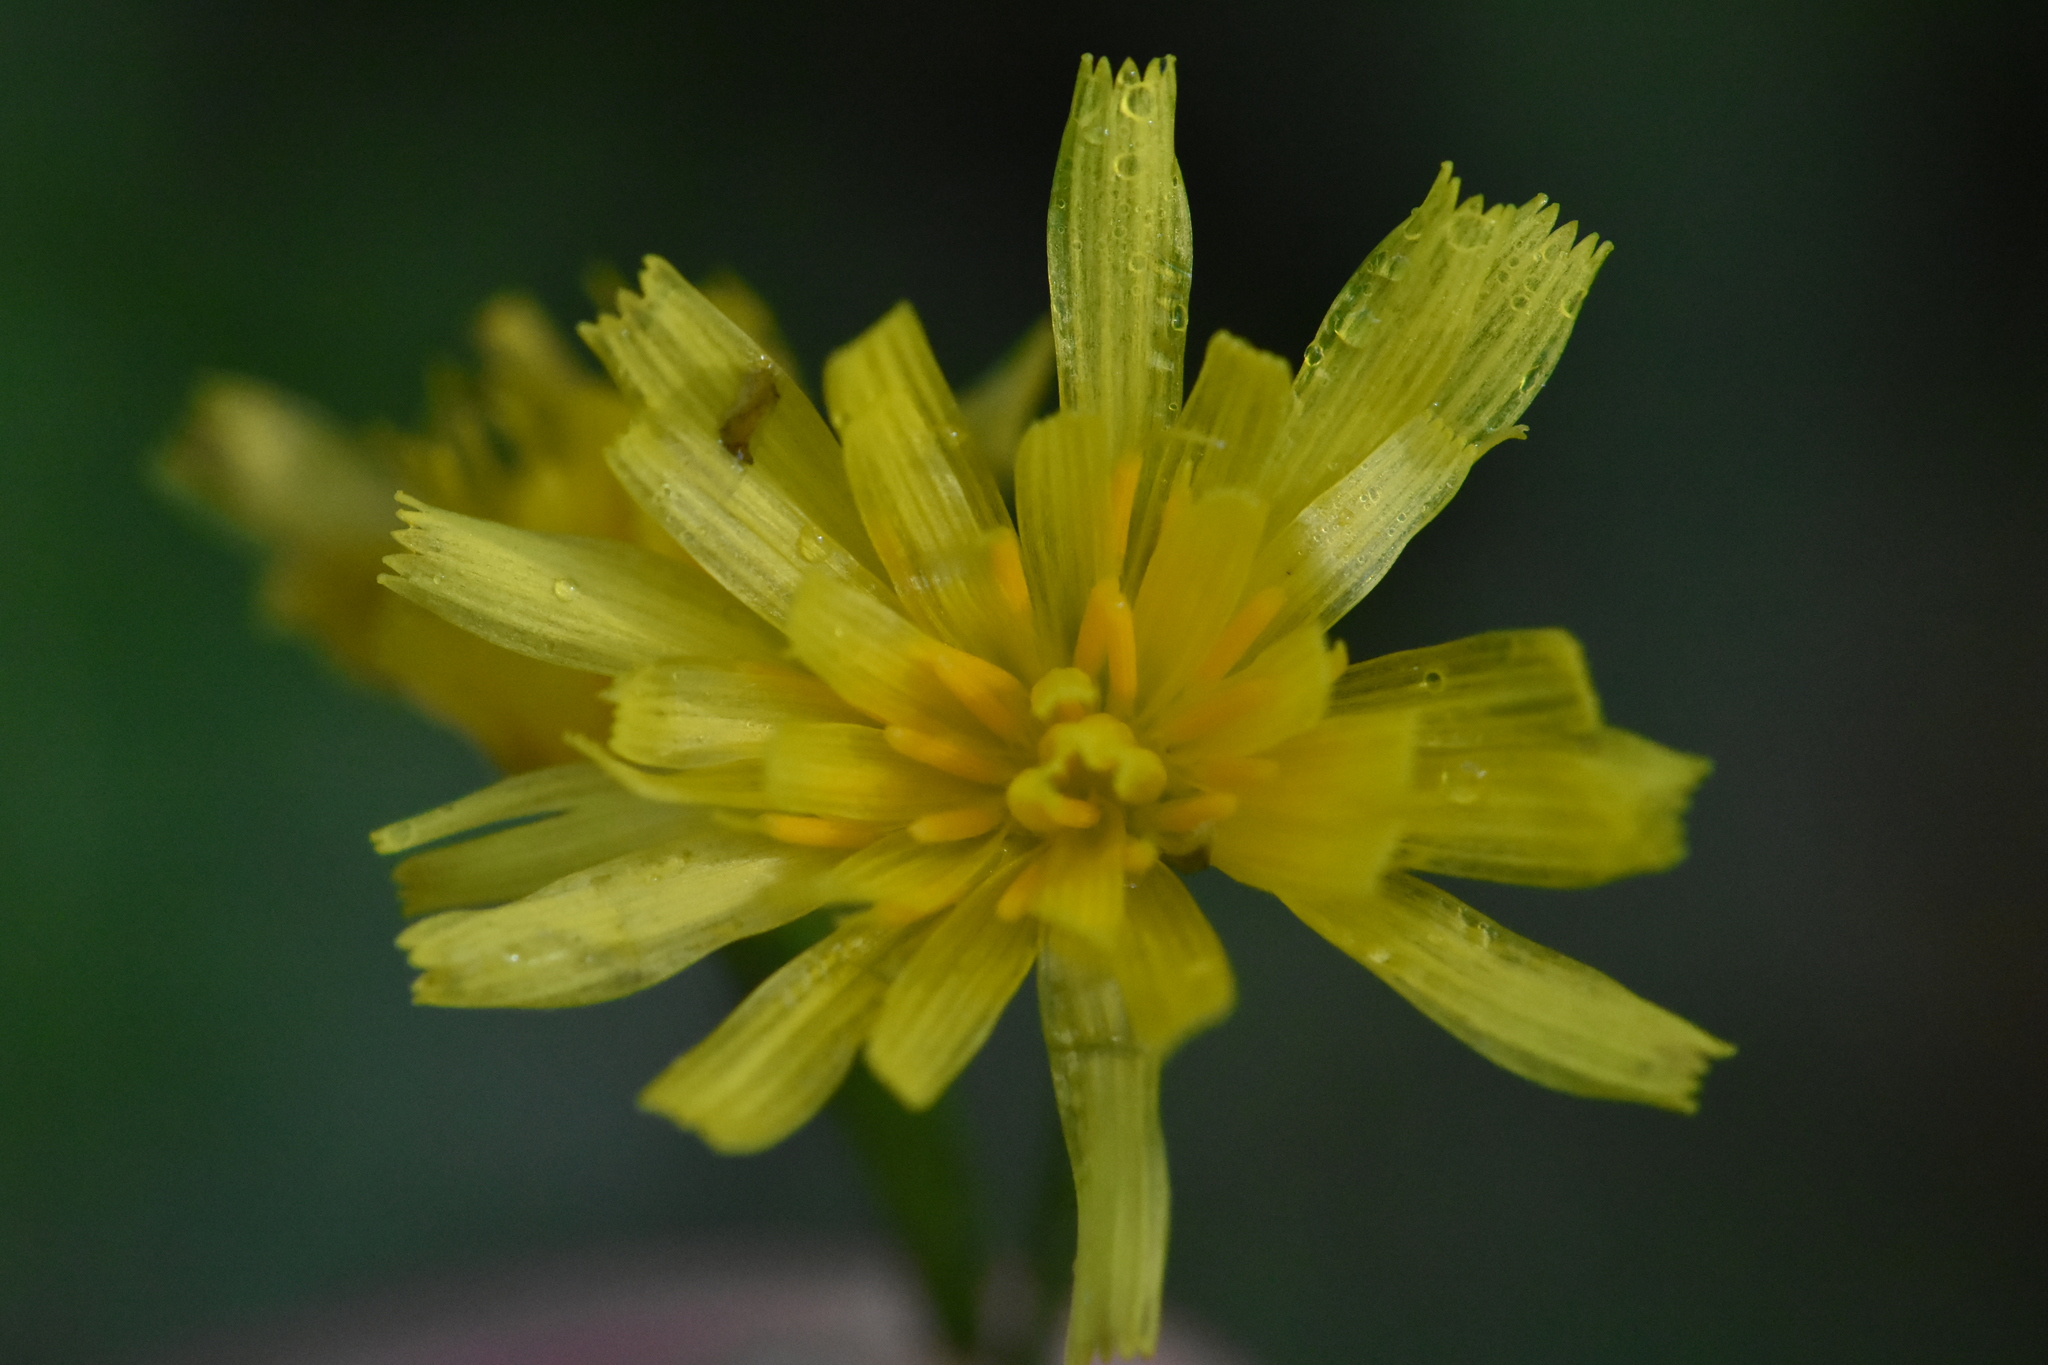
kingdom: Plantae
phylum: Tracheophyta
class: Magnoliopsida
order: Asterales
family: Asteraceae
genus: Scorzoneroides
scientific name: Scorzoneroides autumnalis
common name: Autumn hawkbit
